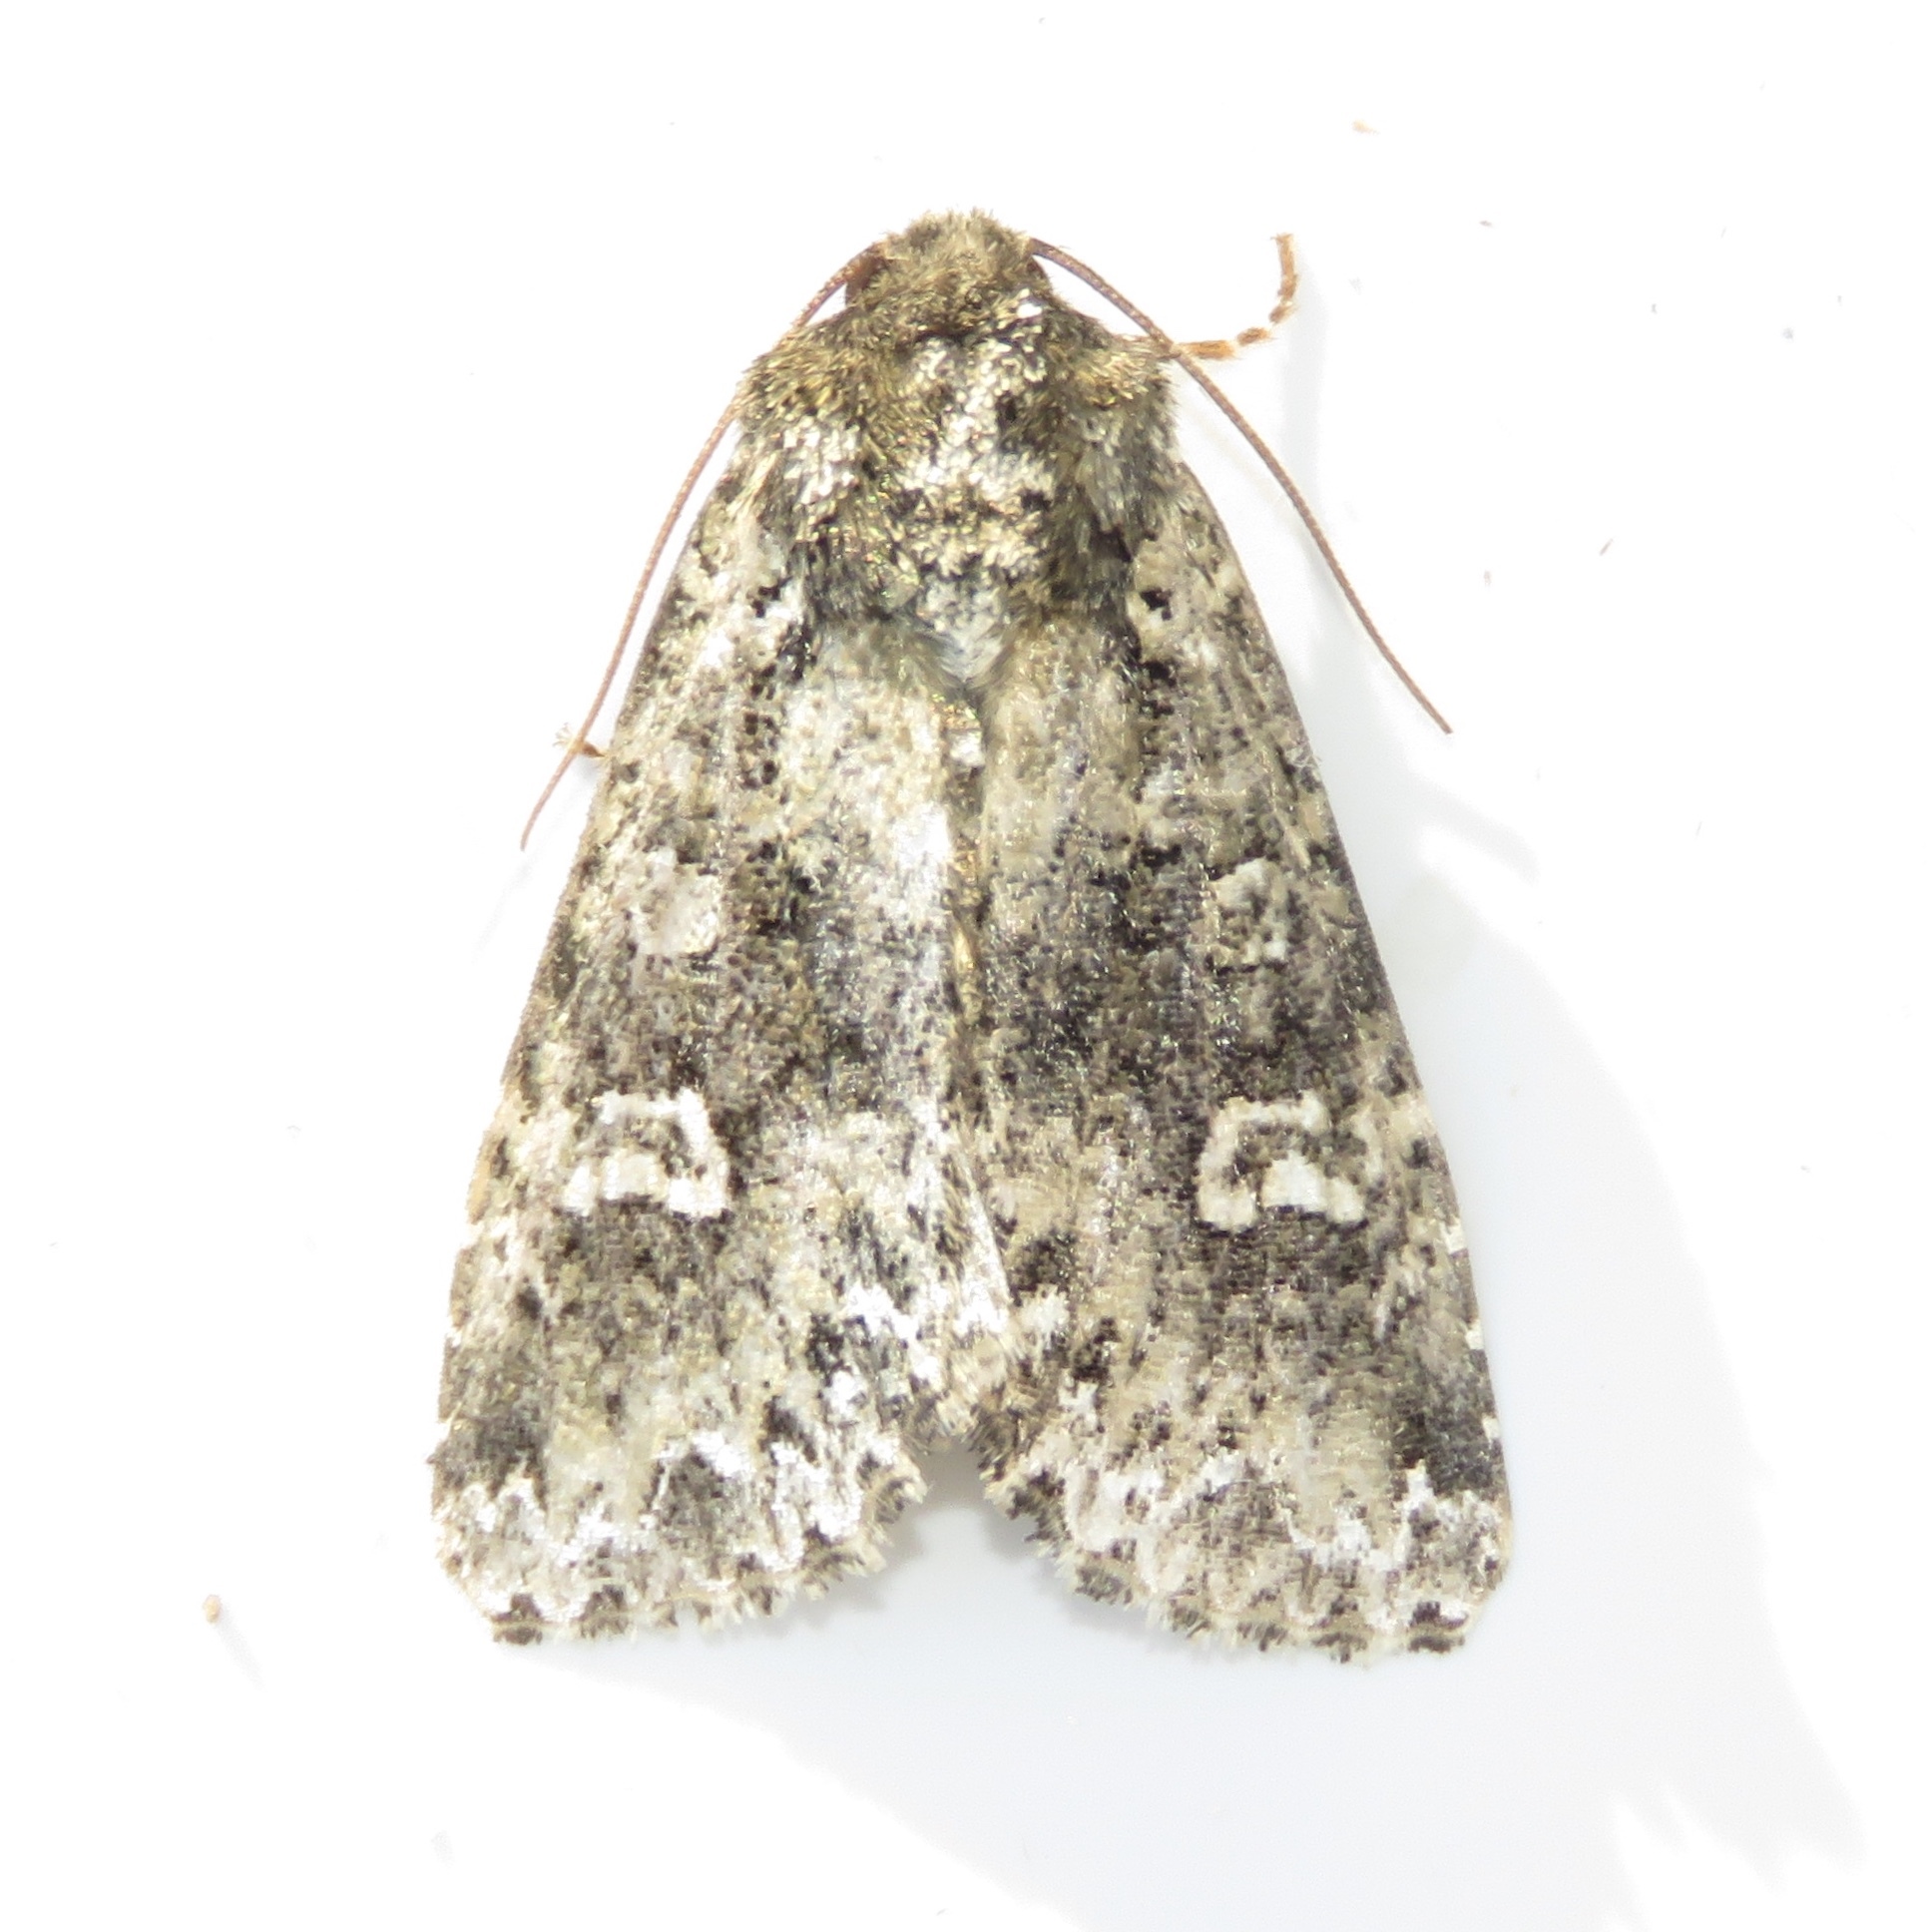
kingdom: Animalia
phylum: Arthropoda
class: Insecta
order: Lepidoptera
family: Noctuidae
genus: Melanchra
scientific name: Melanchra adjuncta
